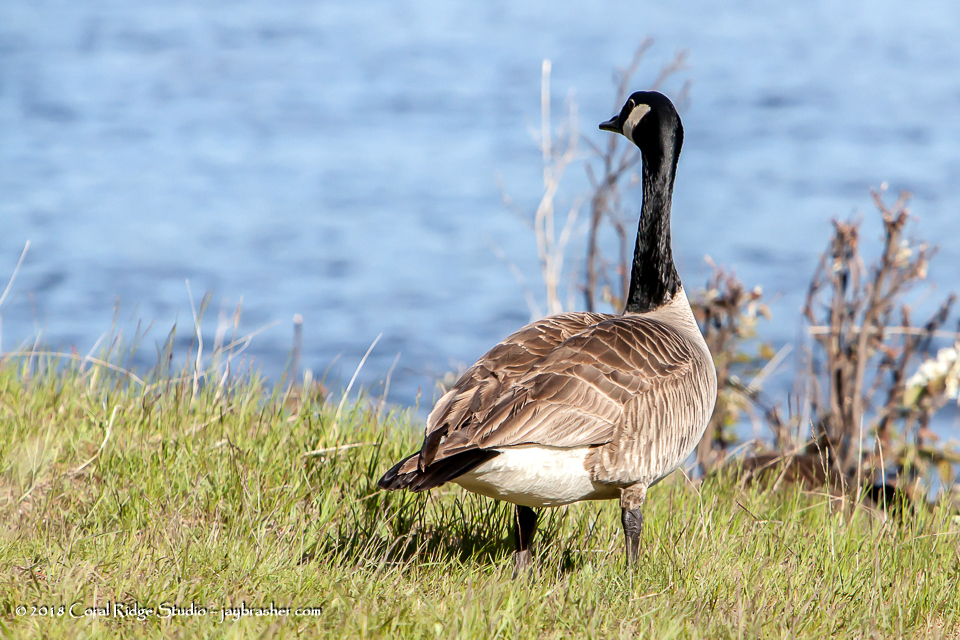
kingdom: Animalia
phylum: Chordata
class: Aves
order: Anseriformes
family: Anatidae
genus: Branta
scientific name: Branta canadensis
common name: Canada goose
